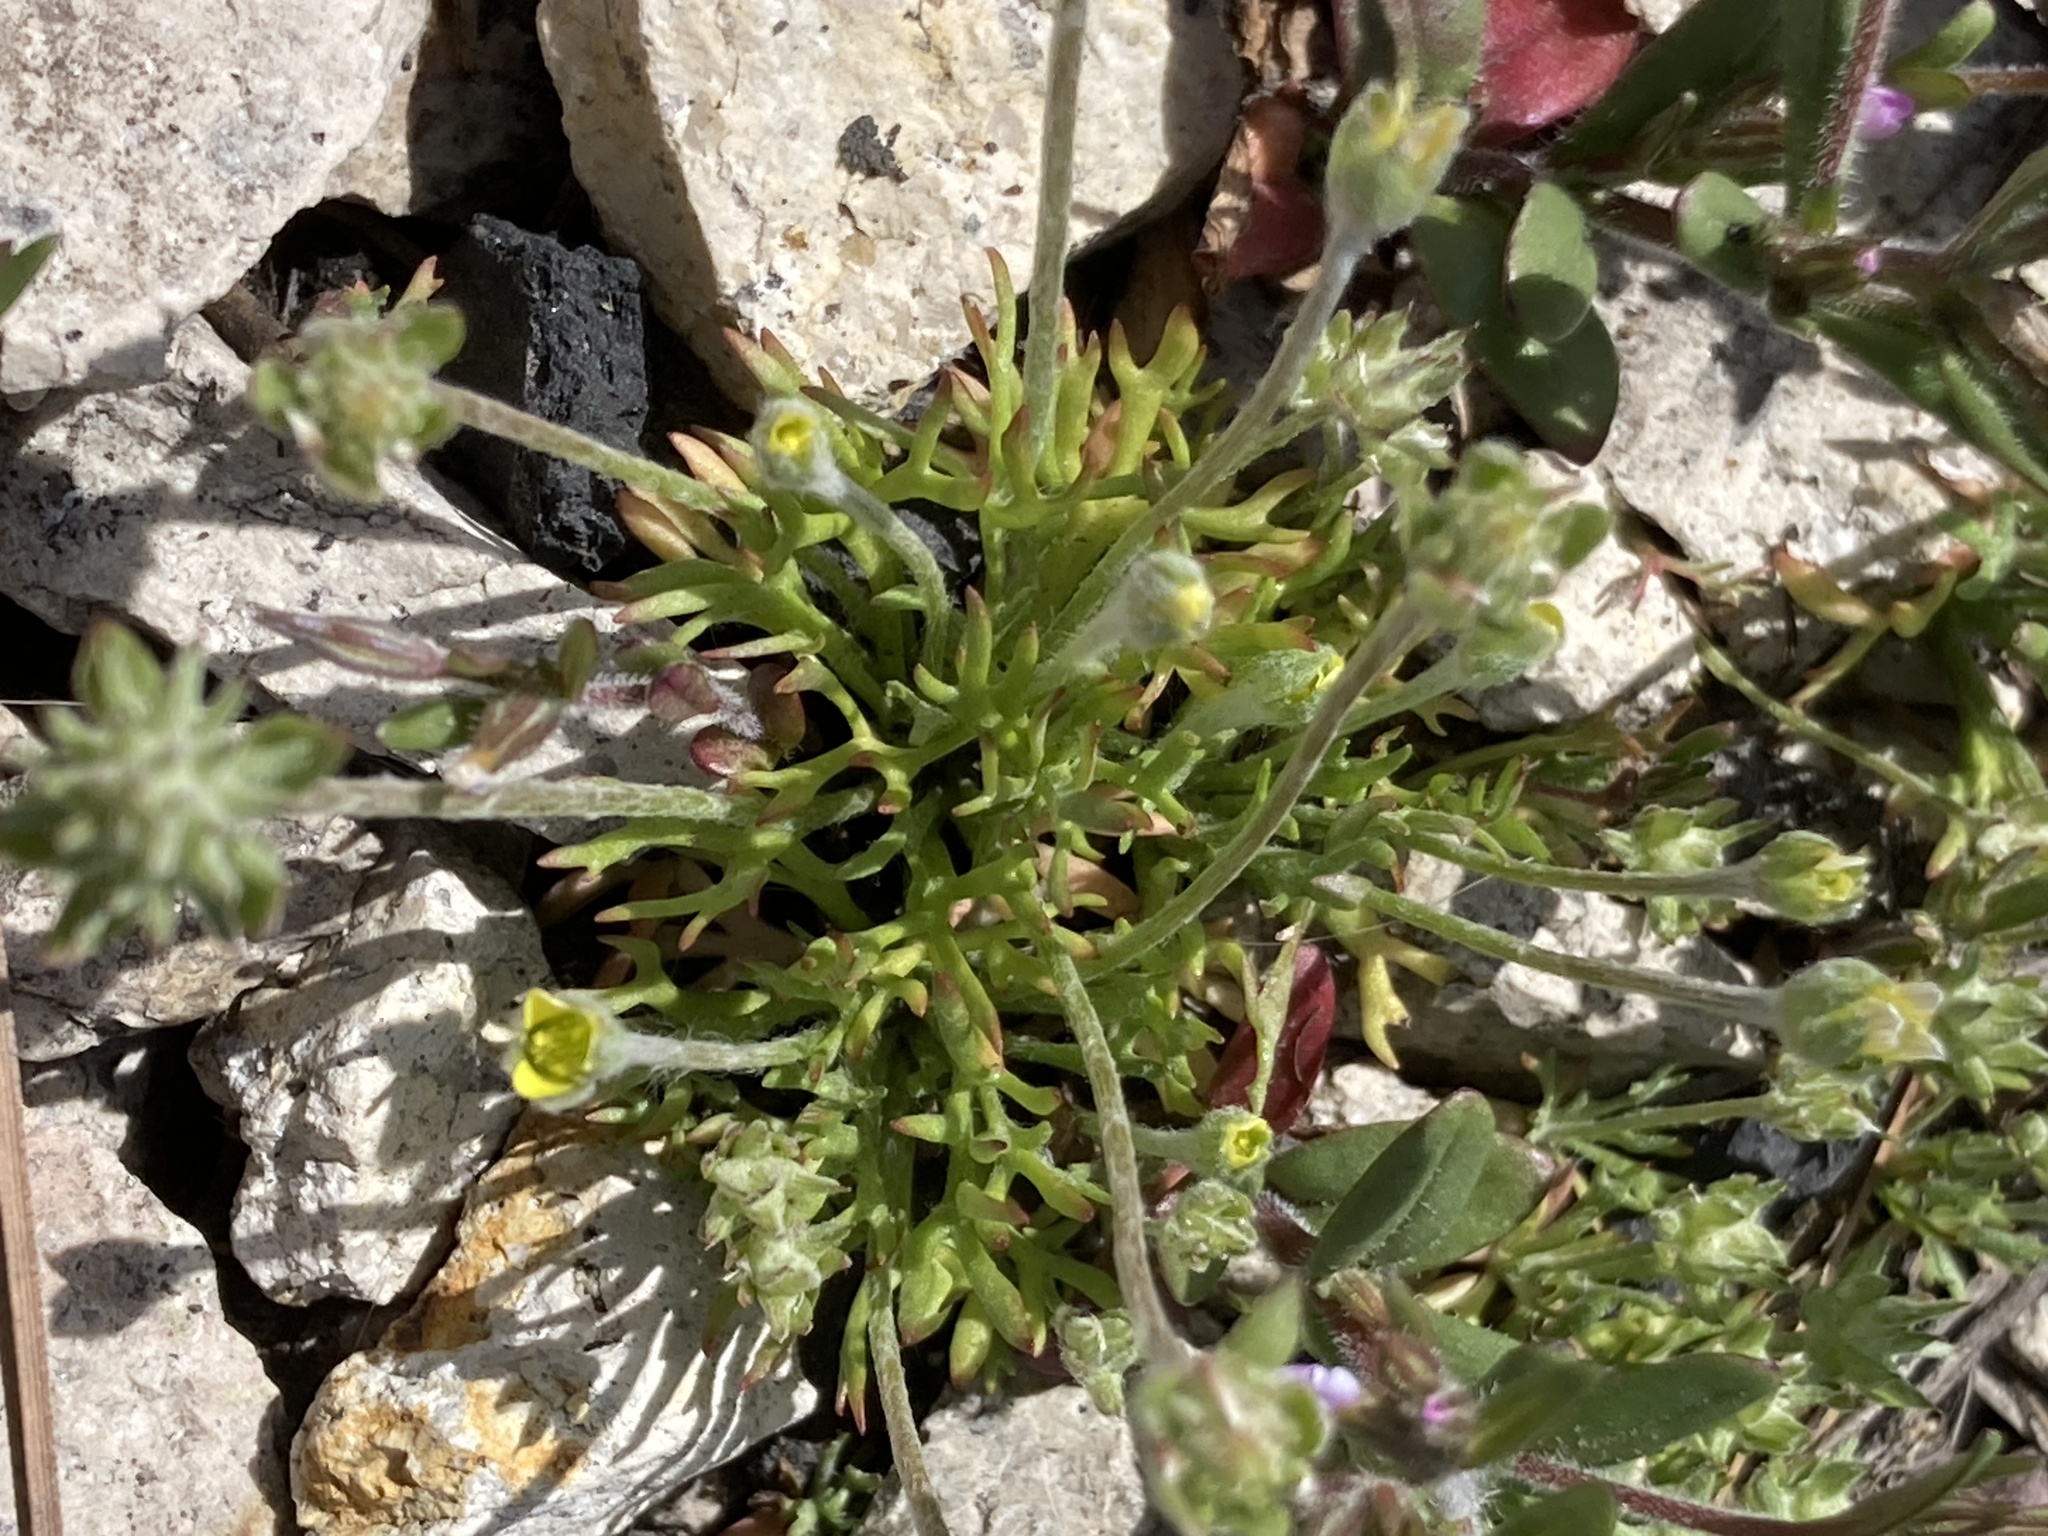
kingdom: Plantae
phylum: Tracheophyta
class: Magnoliopsida
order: Ranunculales
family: Ranunculaceae
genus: Ceratocephala
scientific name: Ceratocephala orthoceras
